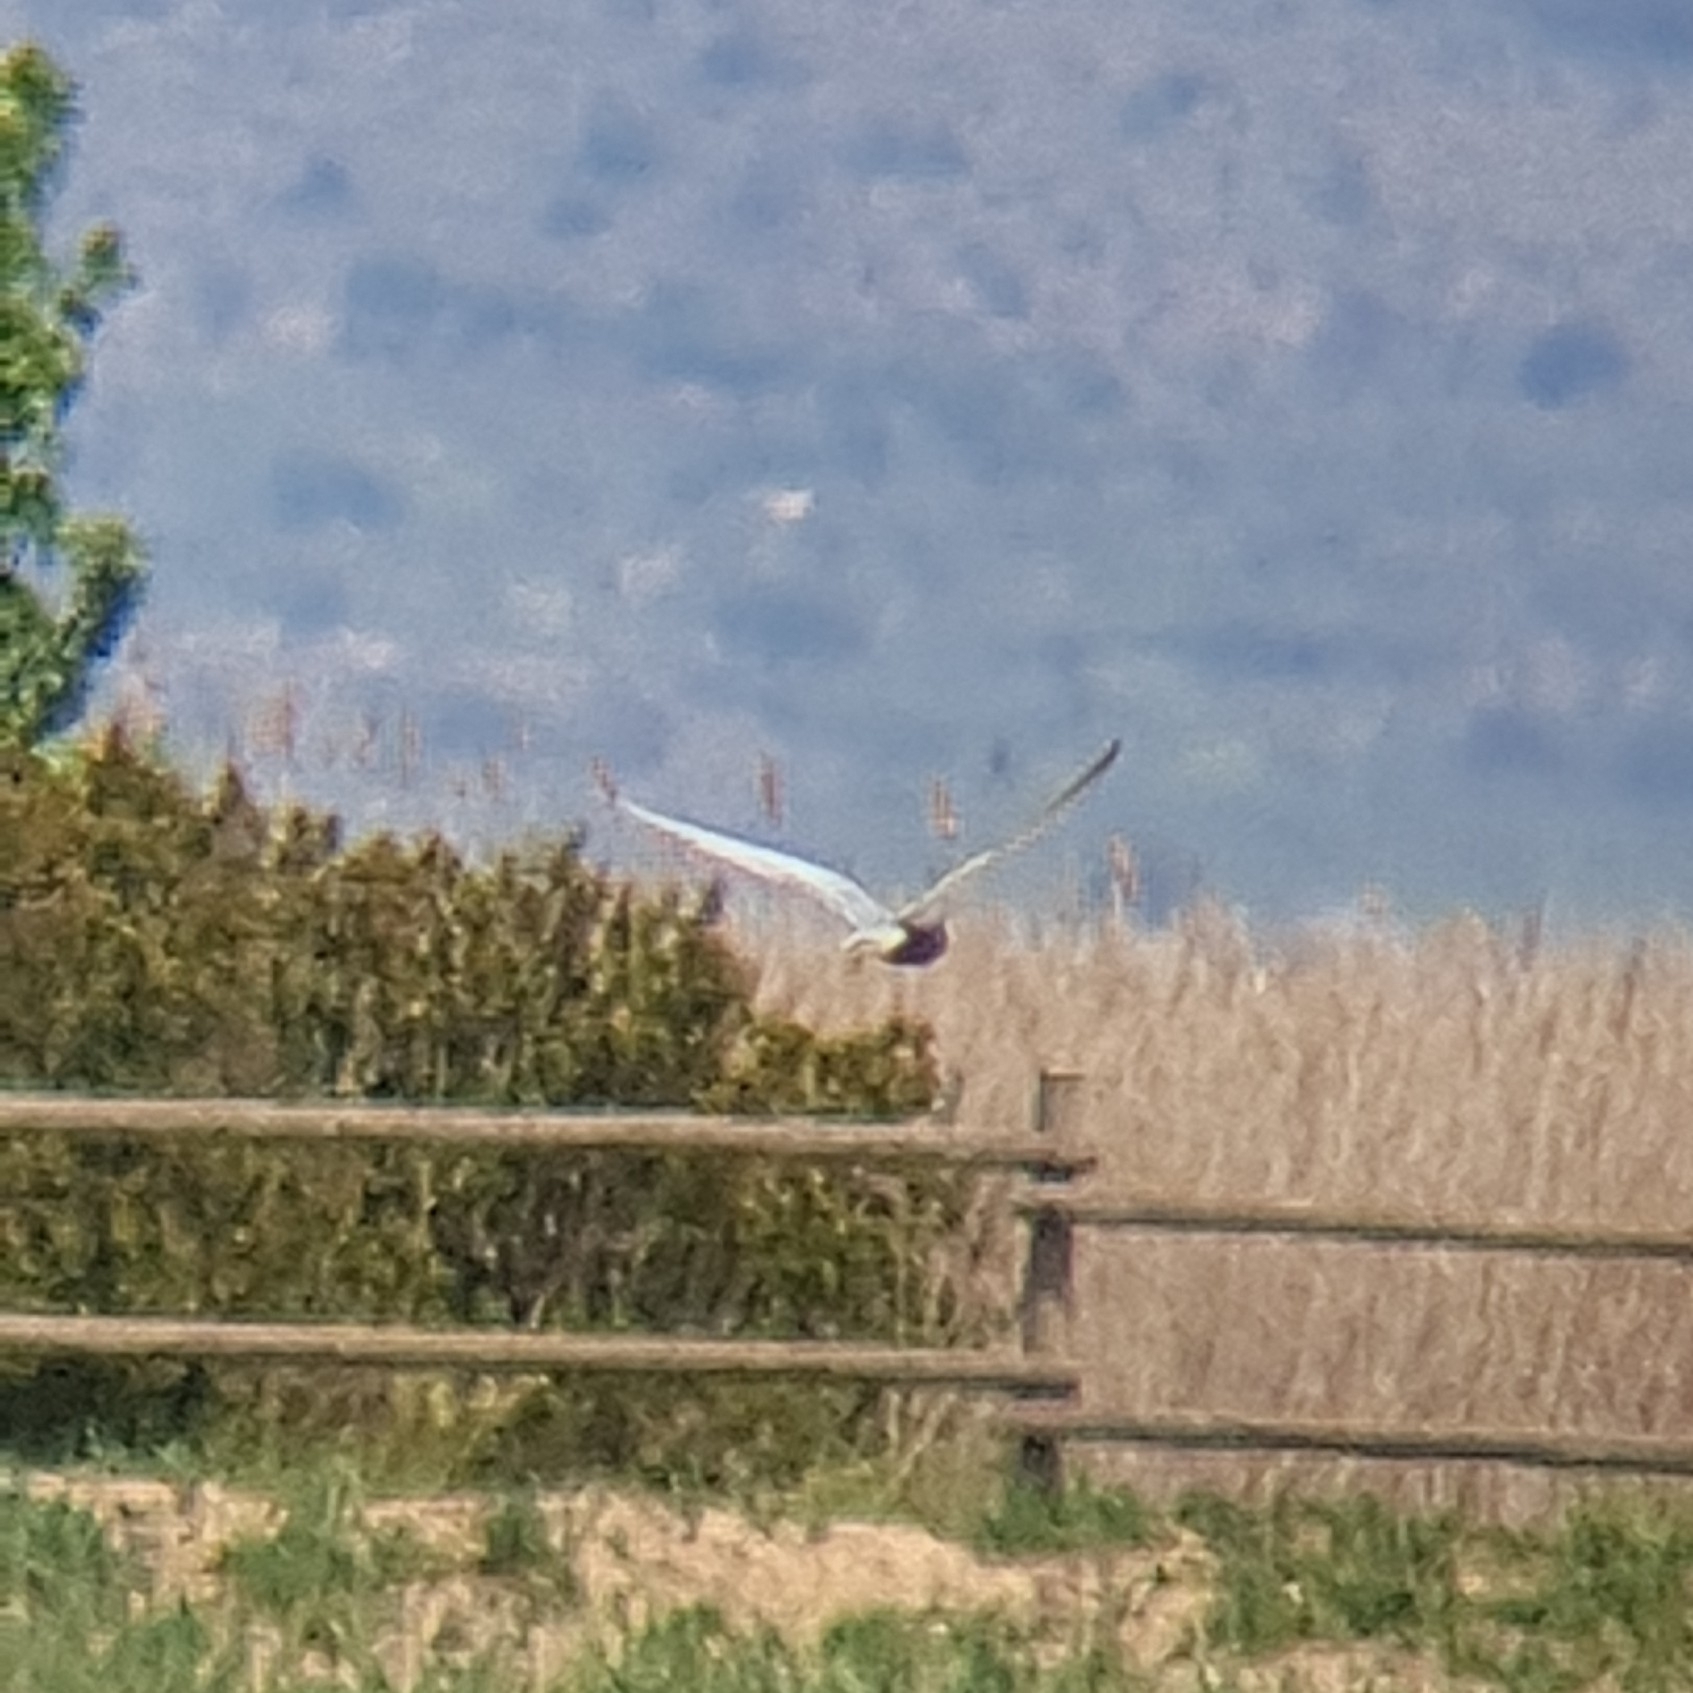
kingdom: Animalia
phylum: Chordata
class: Aves
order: Charadriiformes
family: Laridae
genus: Chlidonias
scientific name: Chlidonias hybrida
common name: Whiskered tern
